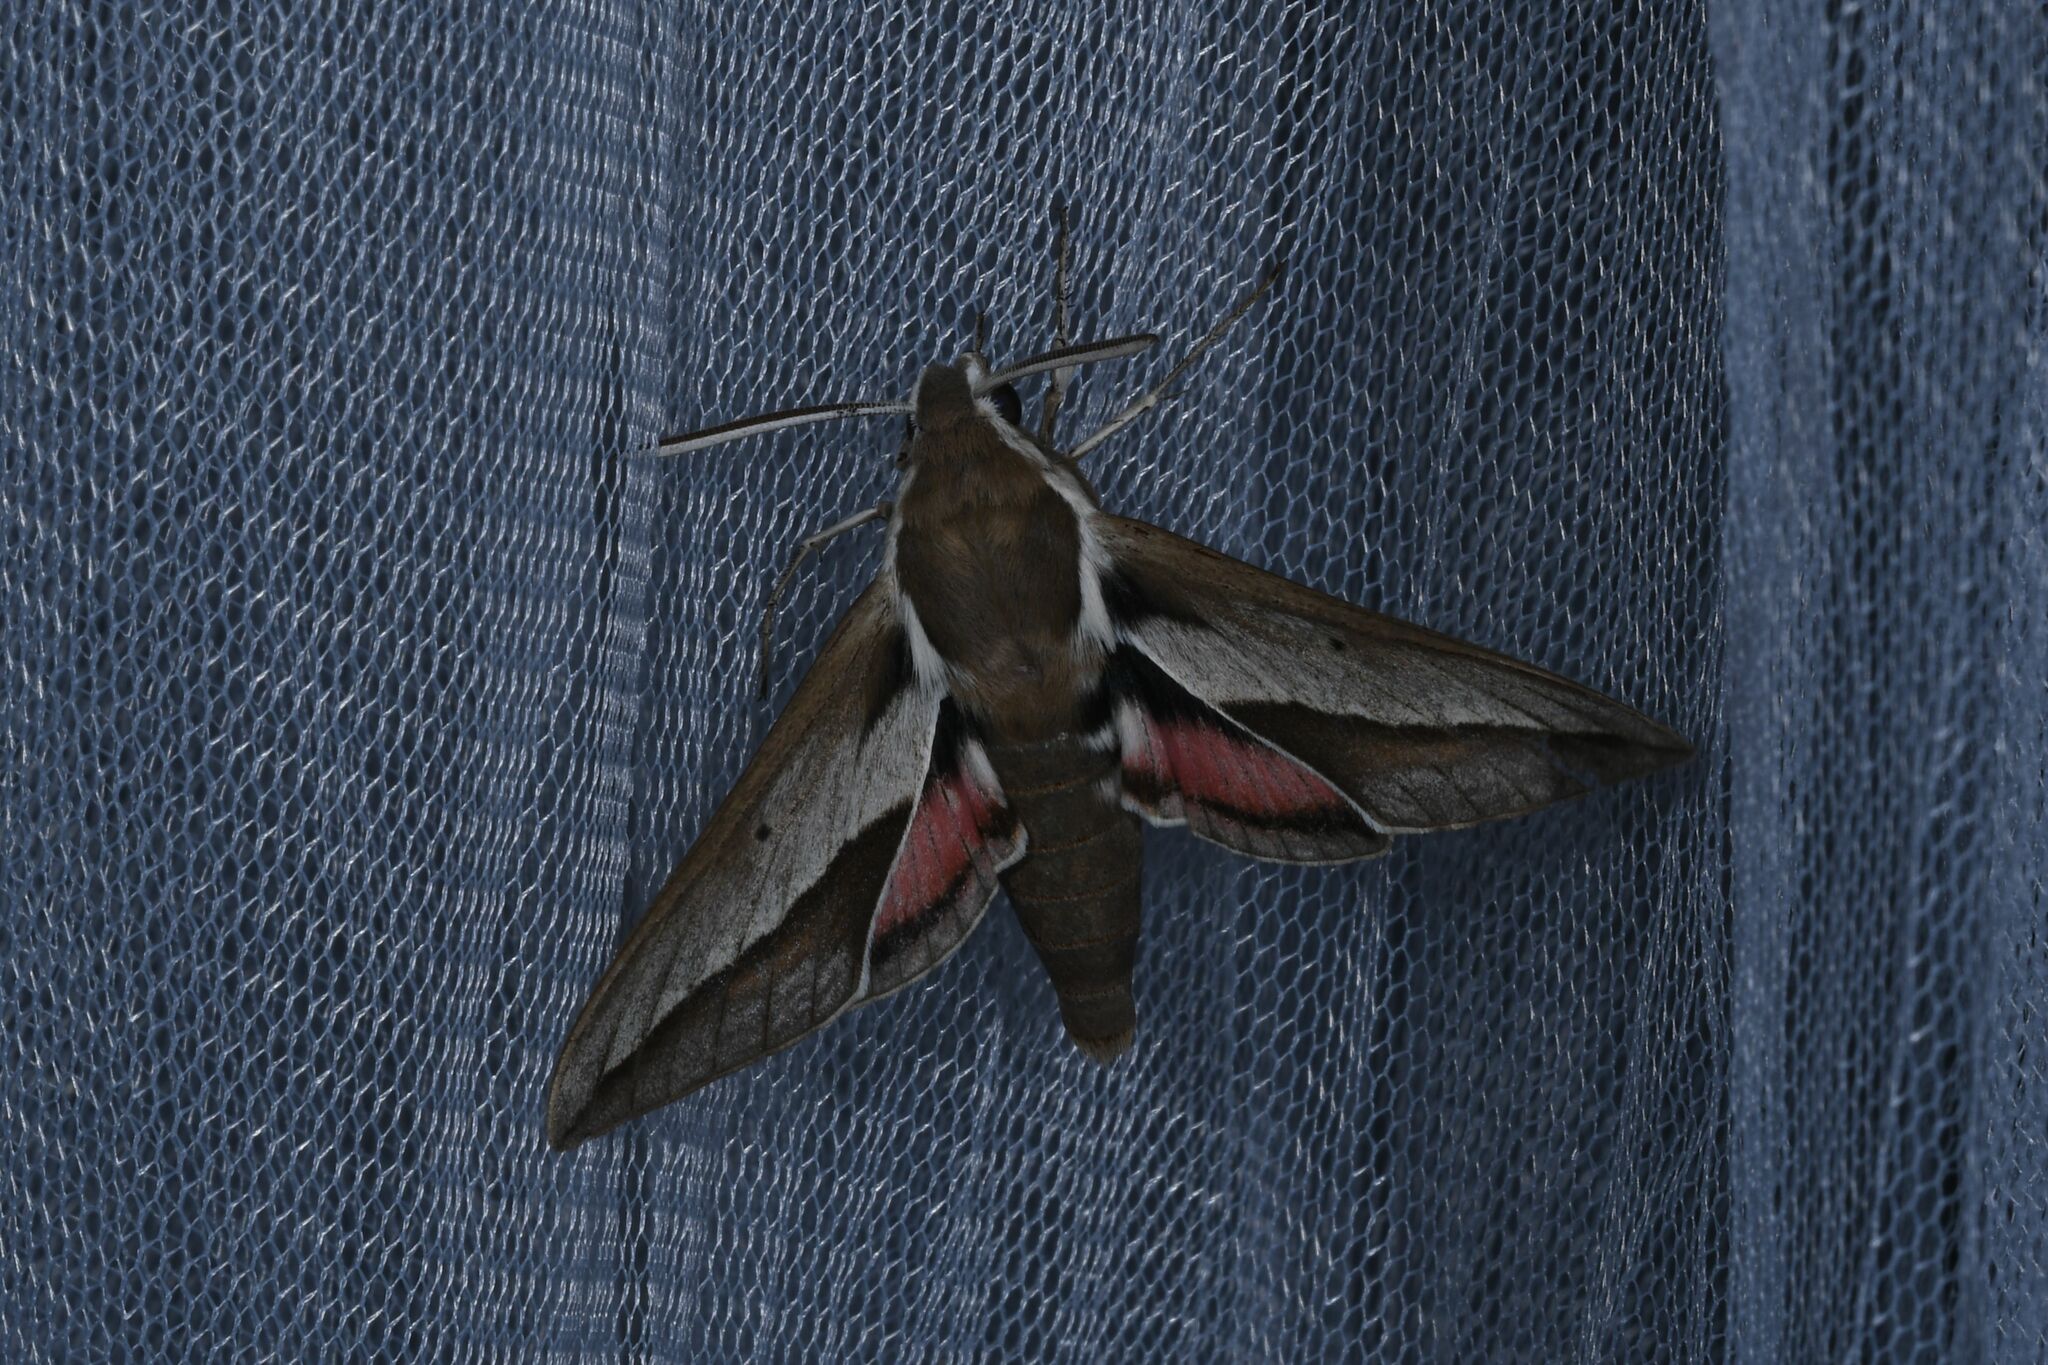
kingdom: Animalia
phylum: Arthropoda
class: Insecta
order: Lepidoptera
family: Sphingidae
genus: Hyles
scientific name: Hyles hippophaes
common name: Seathorn hawk-moth
